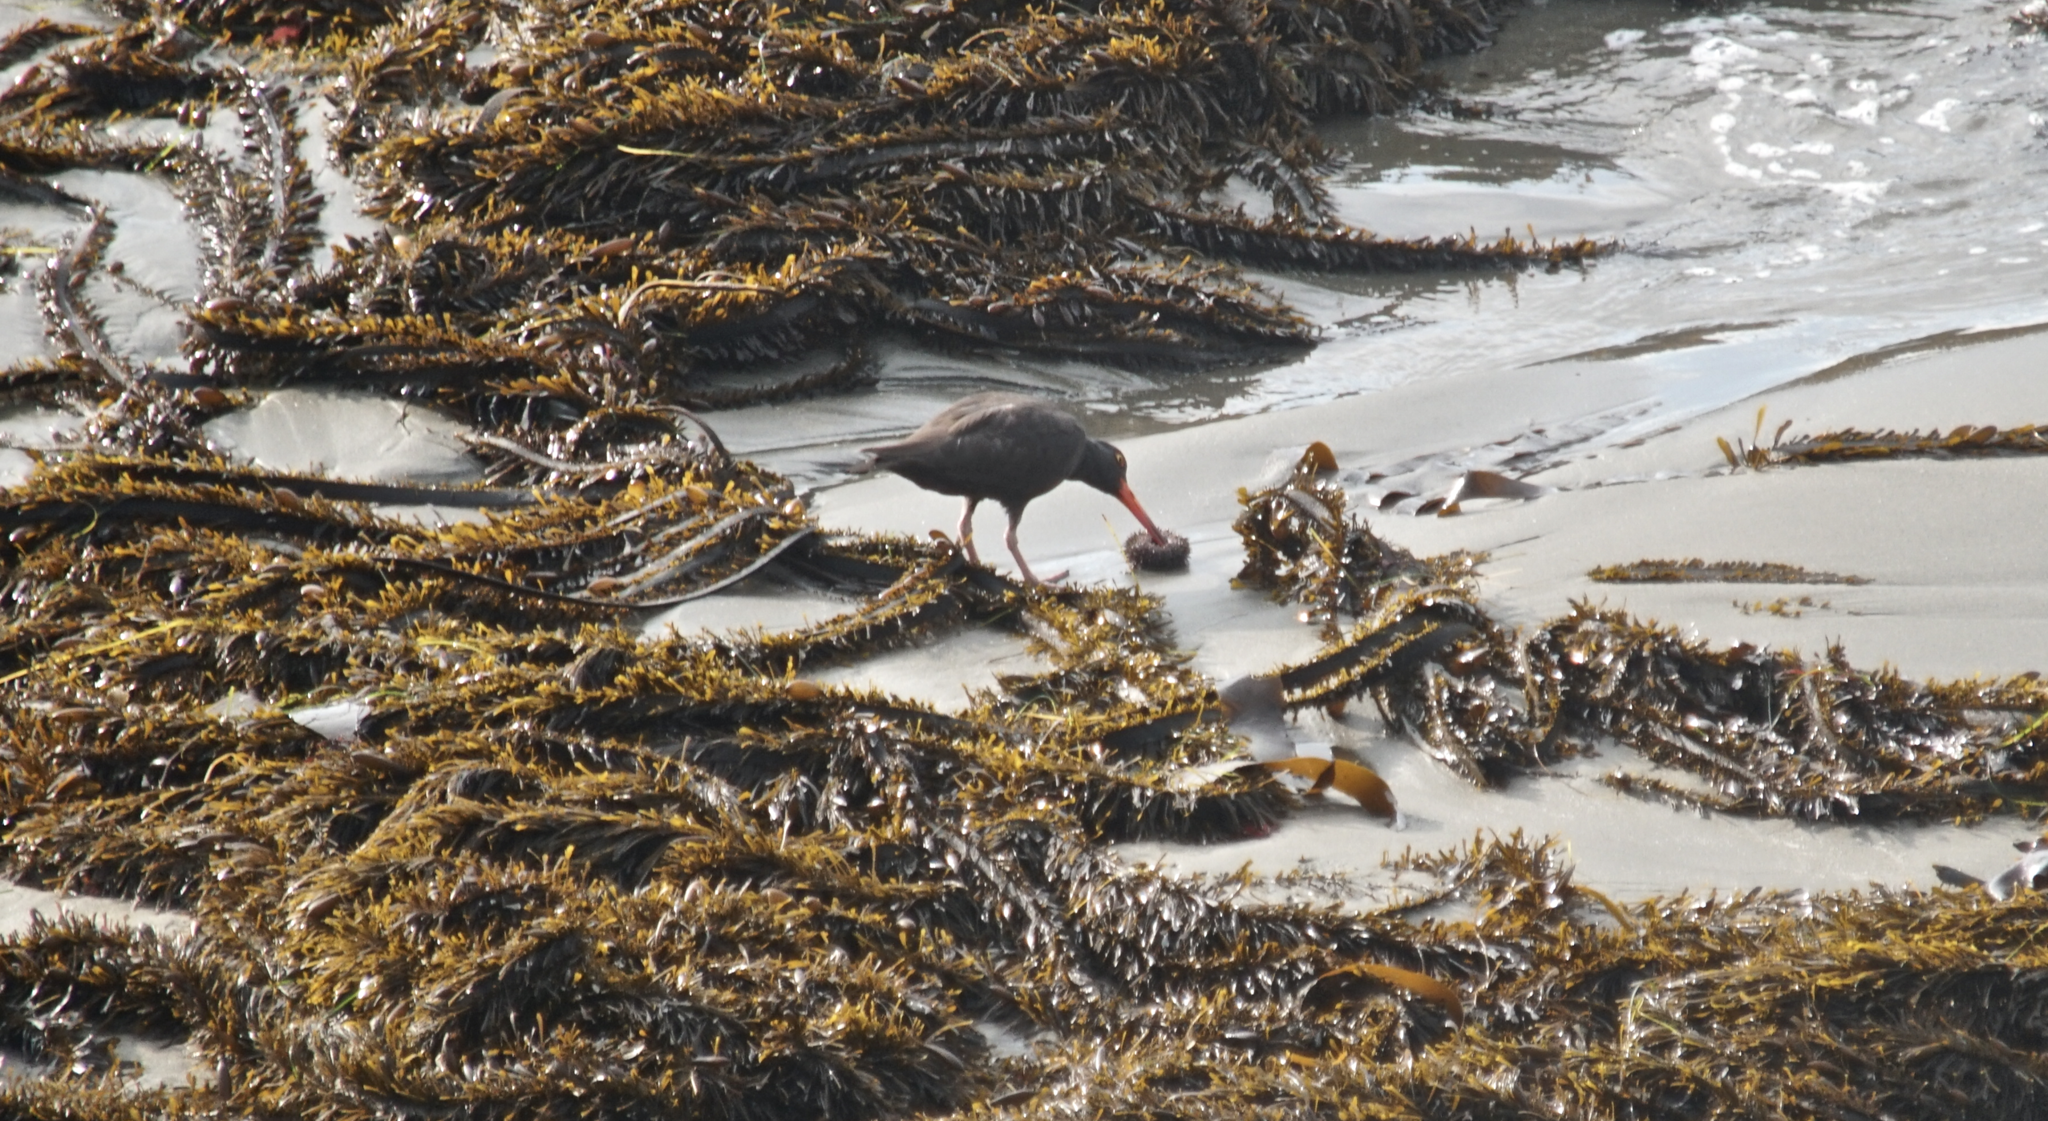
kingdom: Animalia
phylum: Chordata
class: Aves
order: Charadriiformes
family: Haematopodidae
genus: Haematopus
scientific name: Haematopus bachmani
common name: Black oystercatcher
